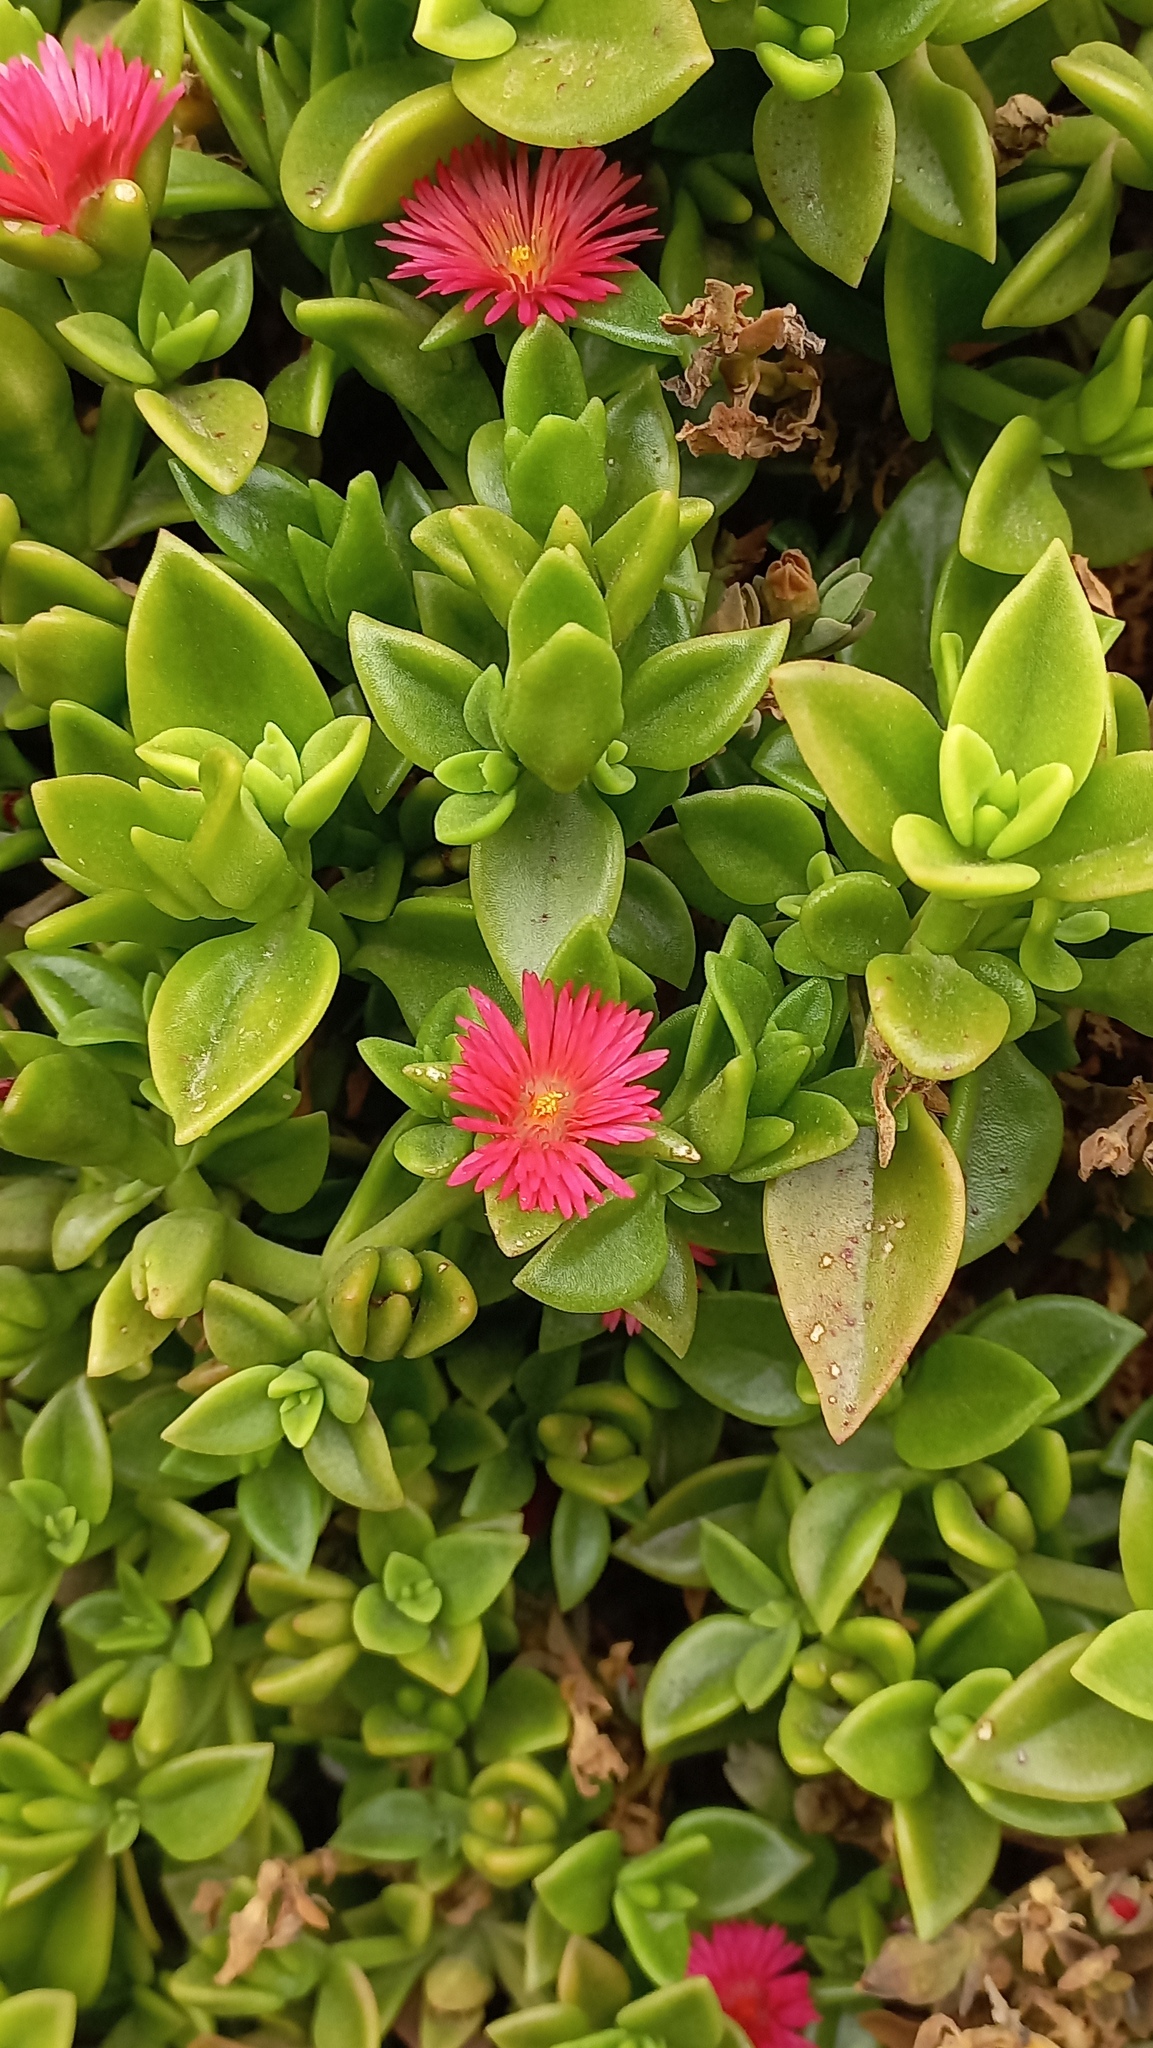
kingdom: Plantae
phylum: Tracheophyta
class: Magnoliopsida
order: Caryophyllales
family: Aizoaceae
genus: Mesembryanthemum
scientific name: Mesembryanthemum cordifolium
